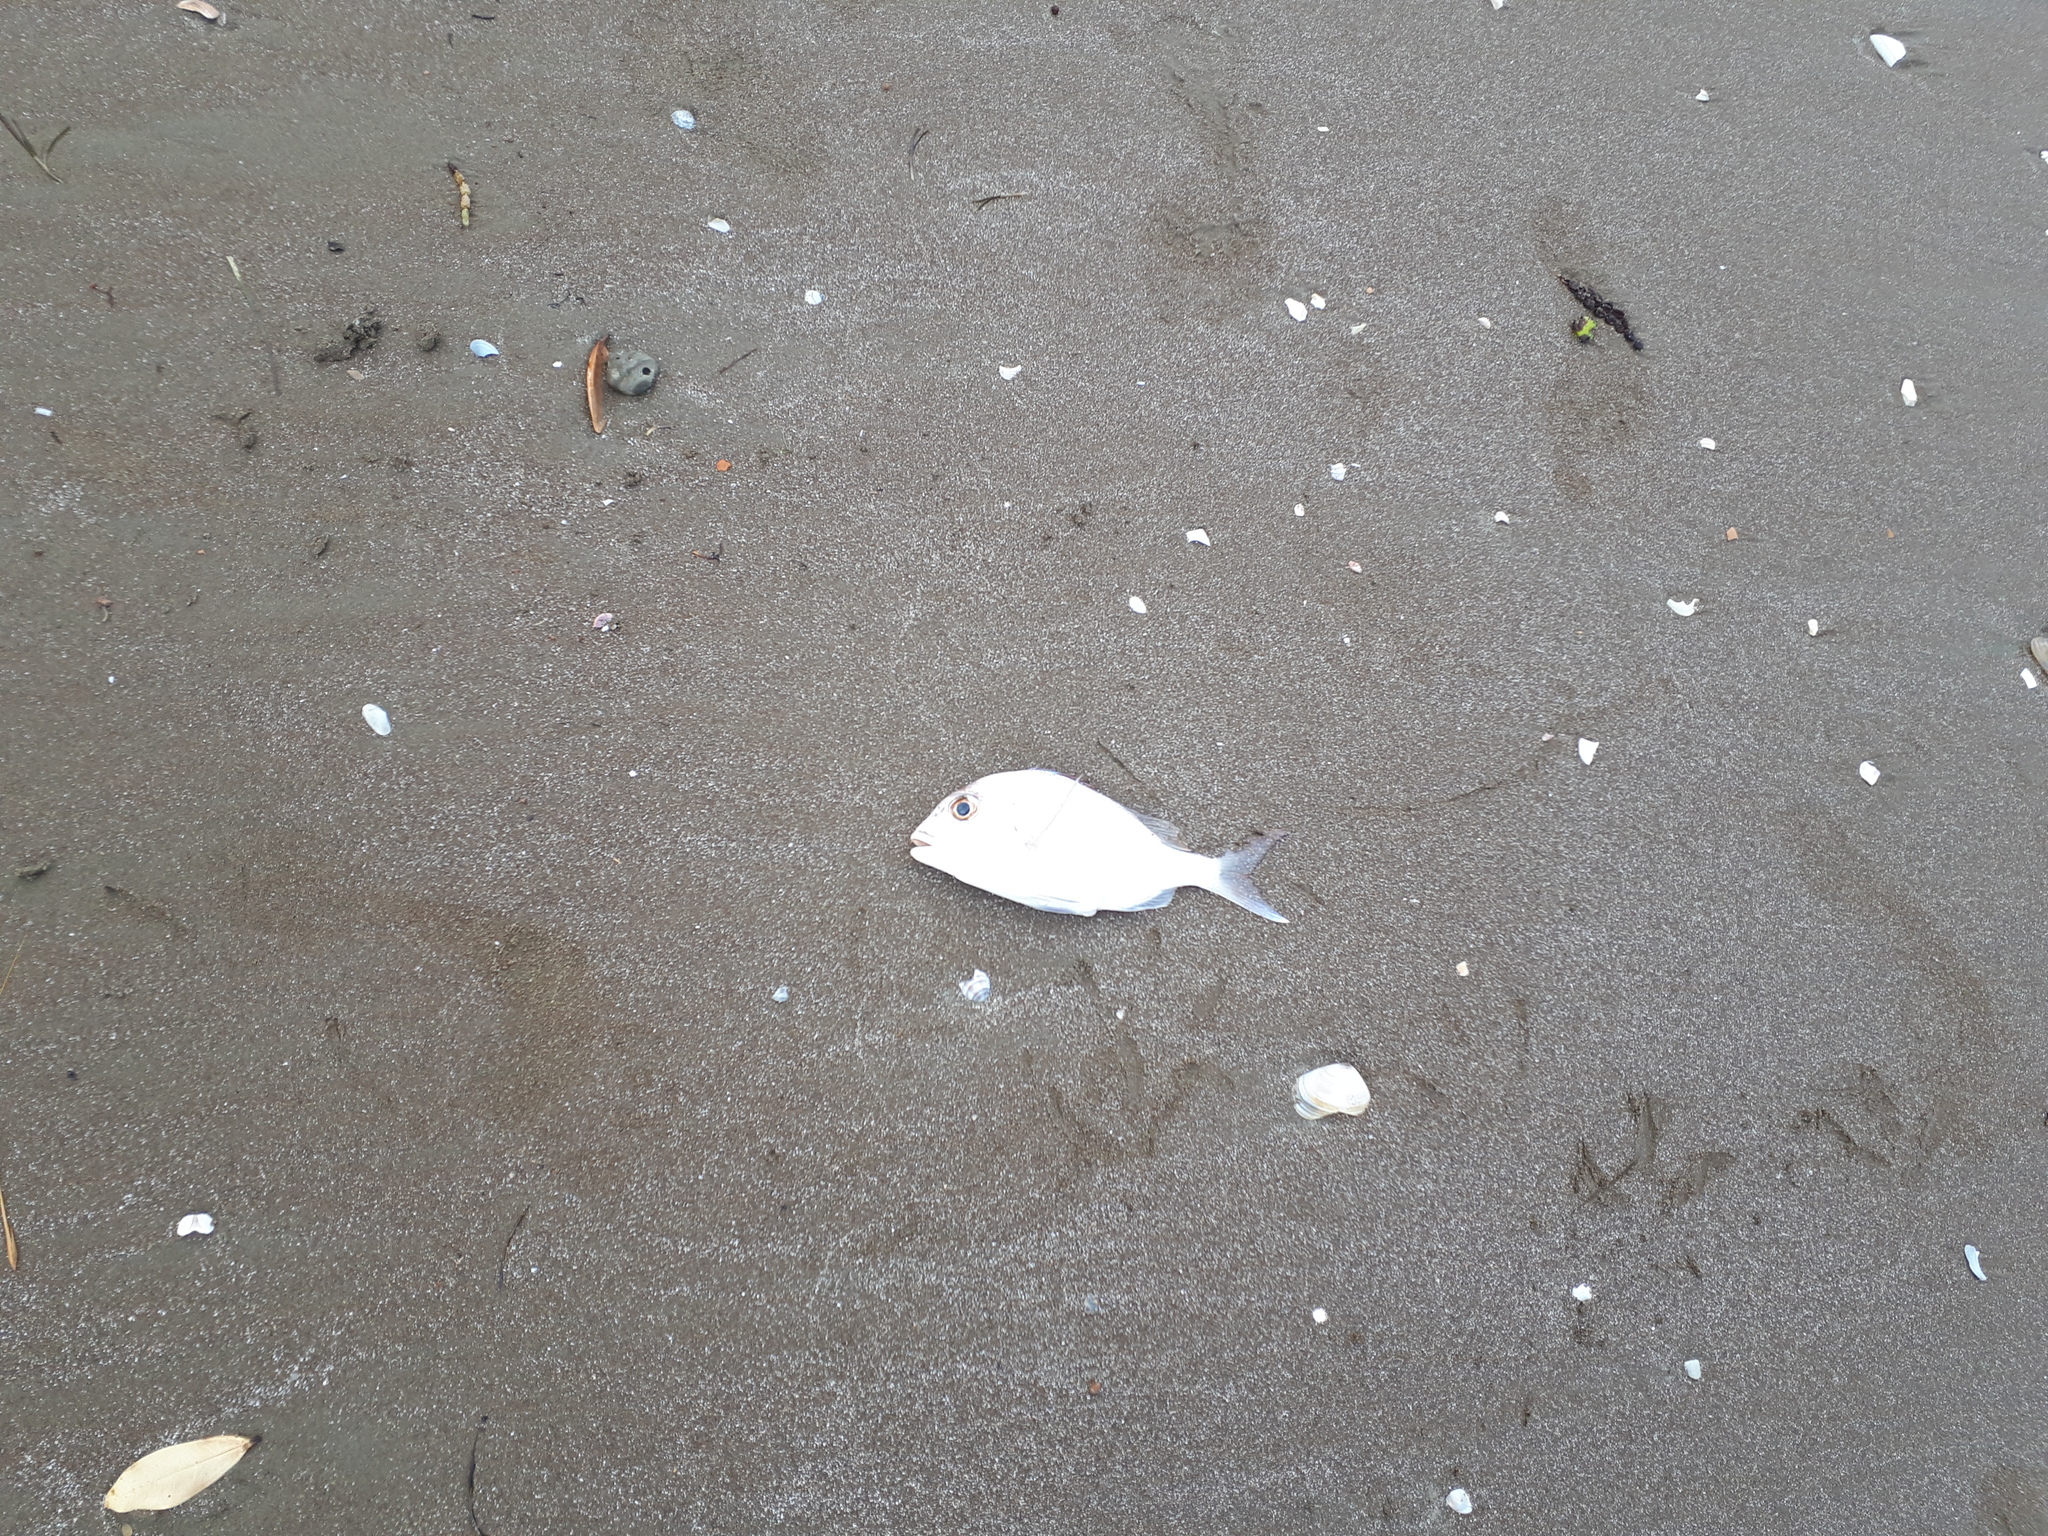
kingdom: Animalia
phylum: Chordata
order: Perciformes
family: Sparidae
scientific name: Sparidae
